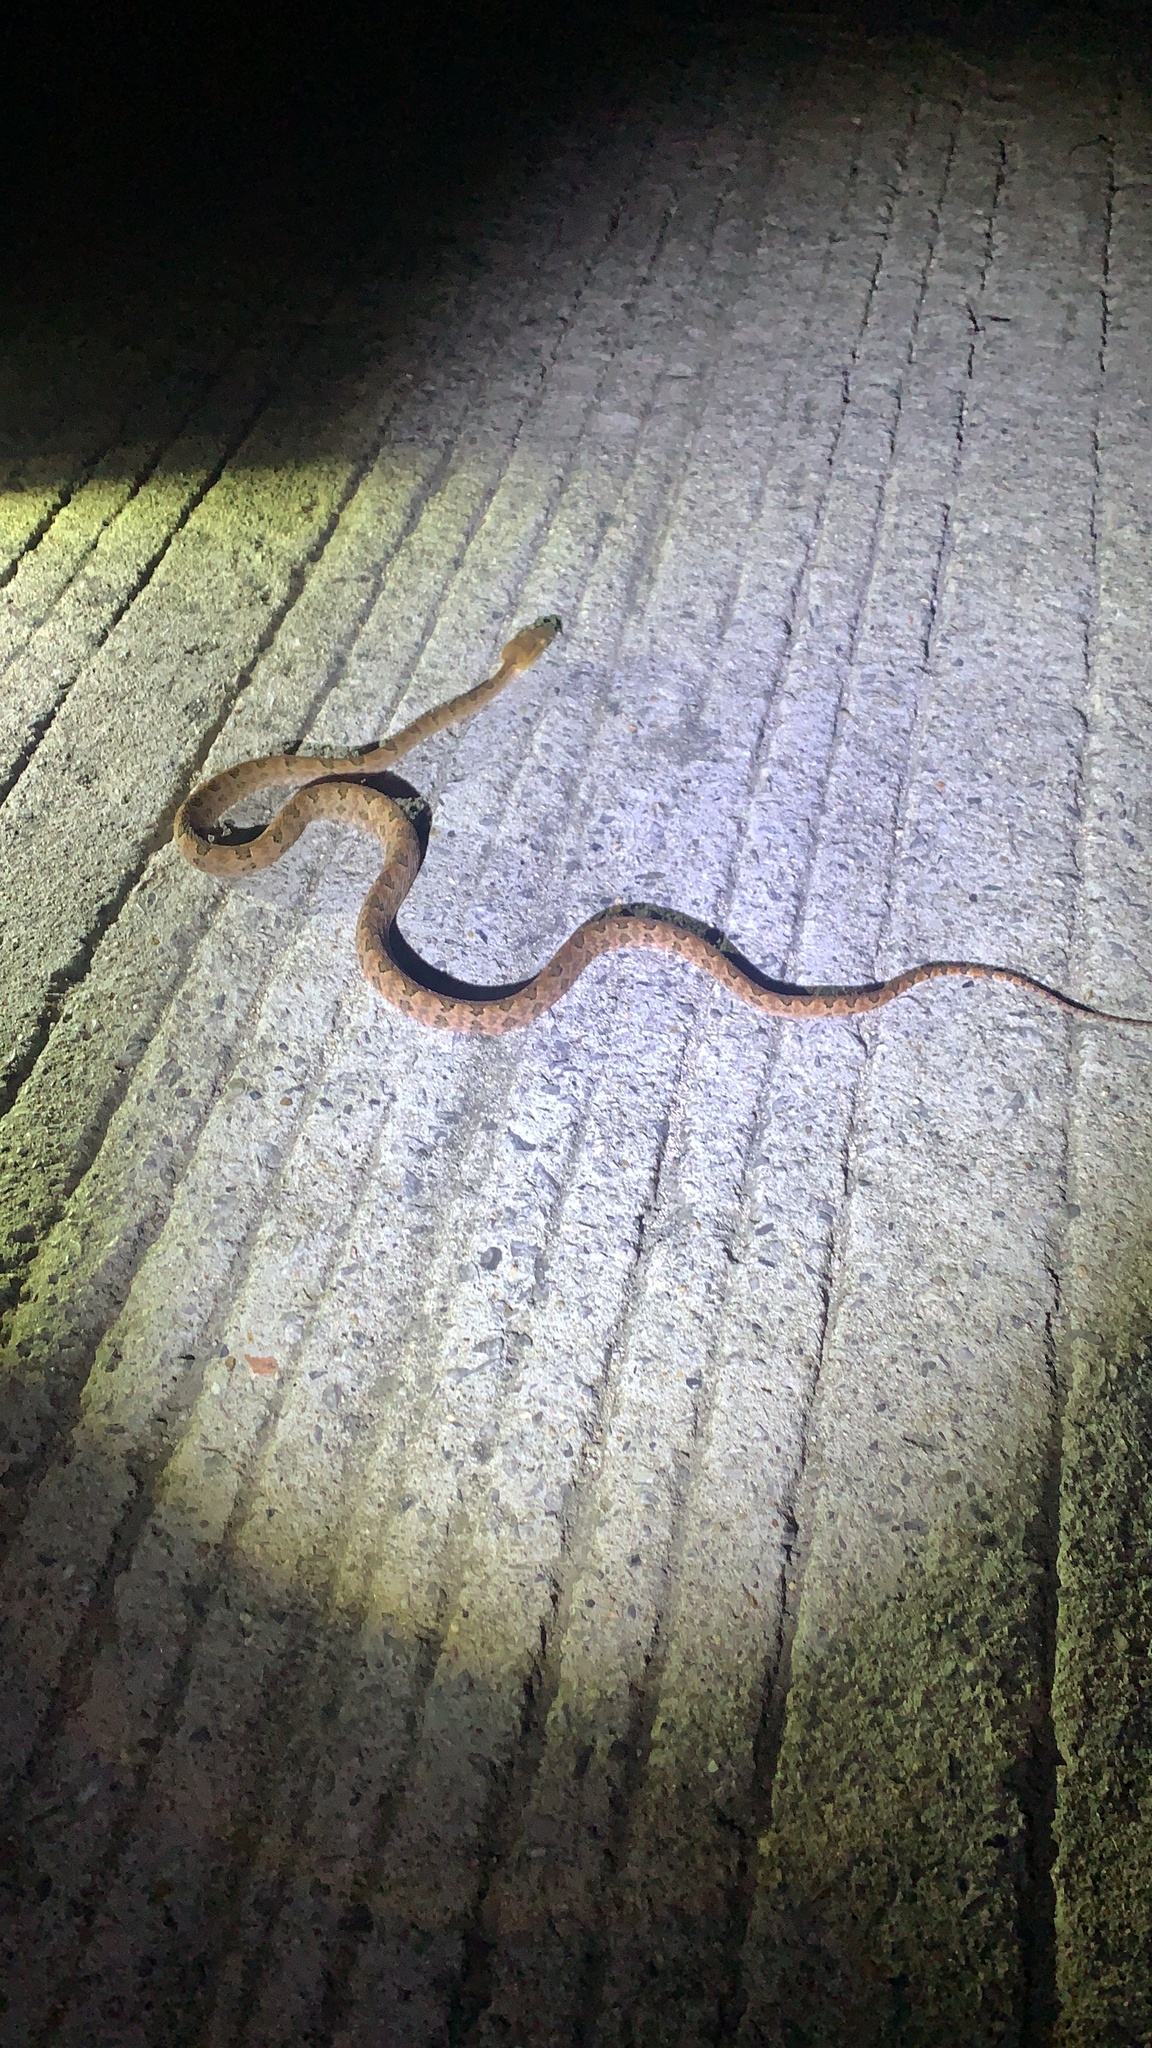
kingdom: Animalia
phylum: Chordata
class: Squamata
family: Viperidae
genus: Protobothrops
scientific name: Protobothrops mucrosquamatus
